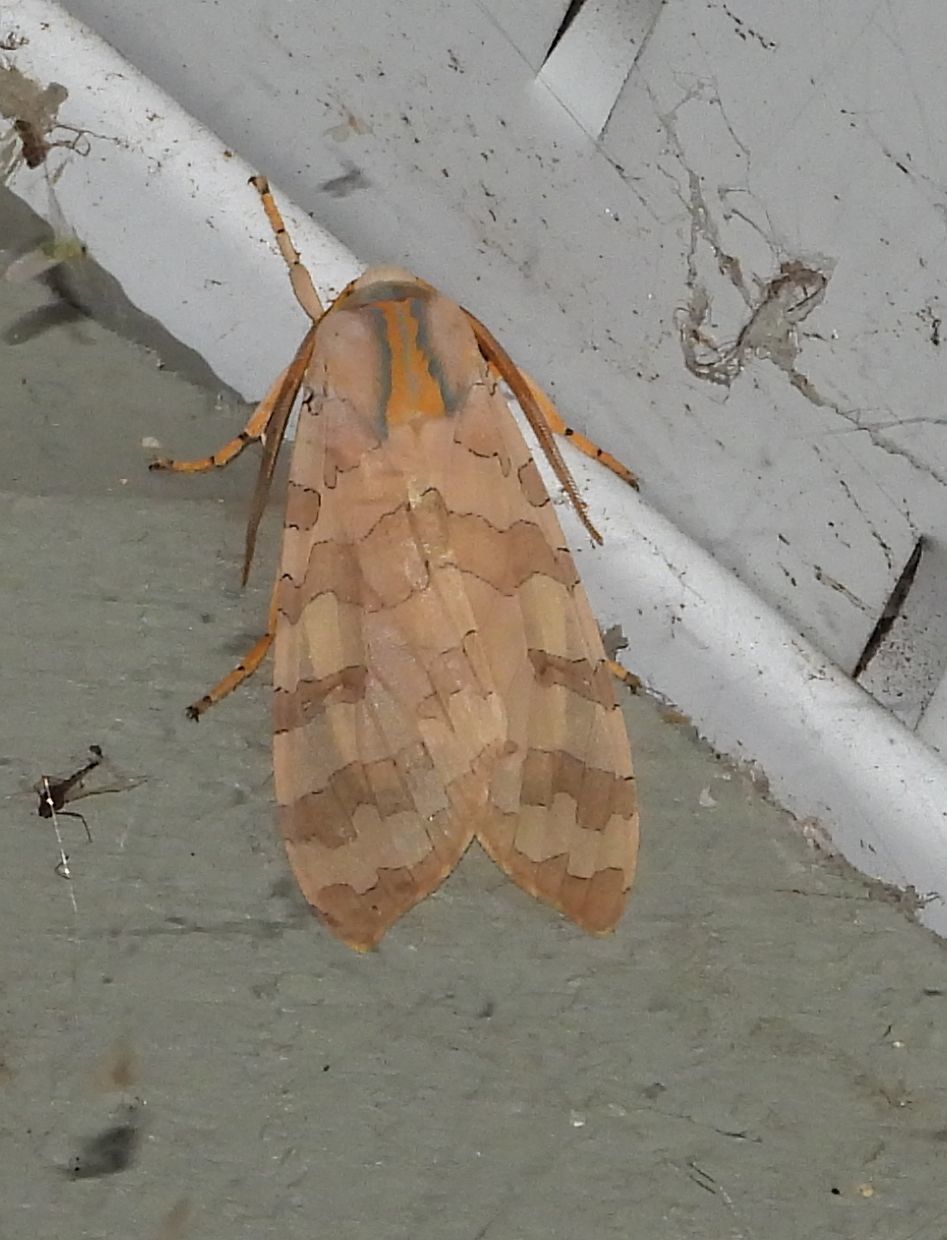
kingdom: Animalia
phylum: Arthropoda
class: Insecta
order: Lepidoptera
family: Erebidae
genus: Halysidota
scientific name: Halysidota tessellaris
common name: Banded tussock moth
